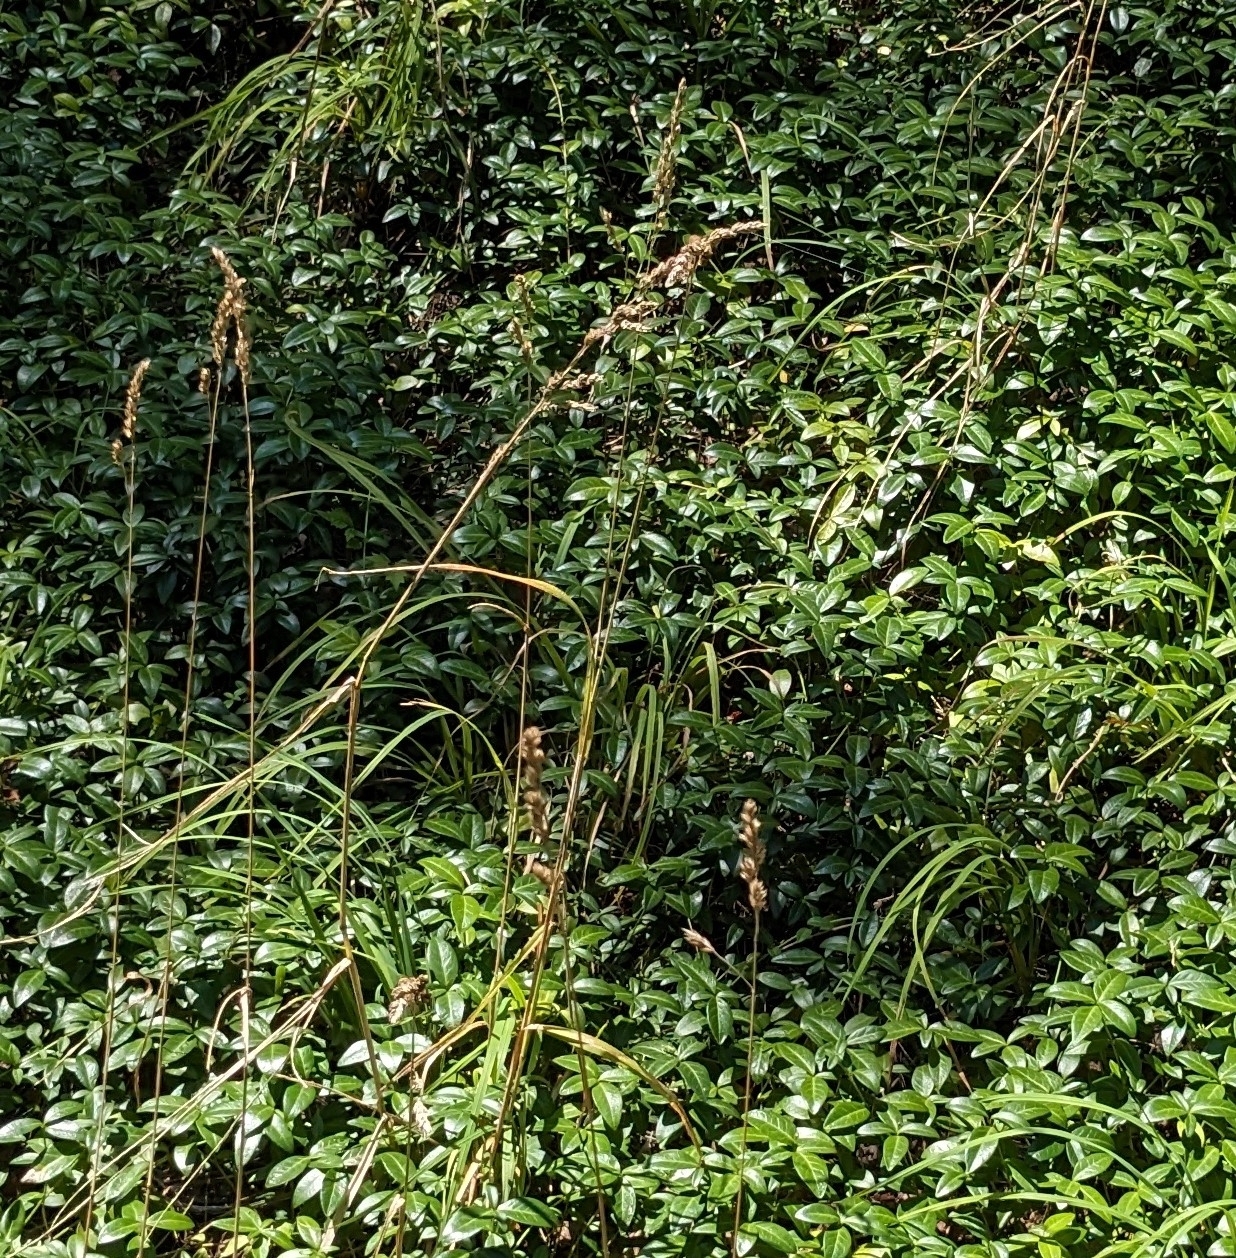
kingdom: Plantae
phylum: Tracheophyta
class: Liliopsida
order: Poales
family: Poaceae
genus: Dactylis
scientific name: Dactylis glomerata
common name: Orchardgrass
